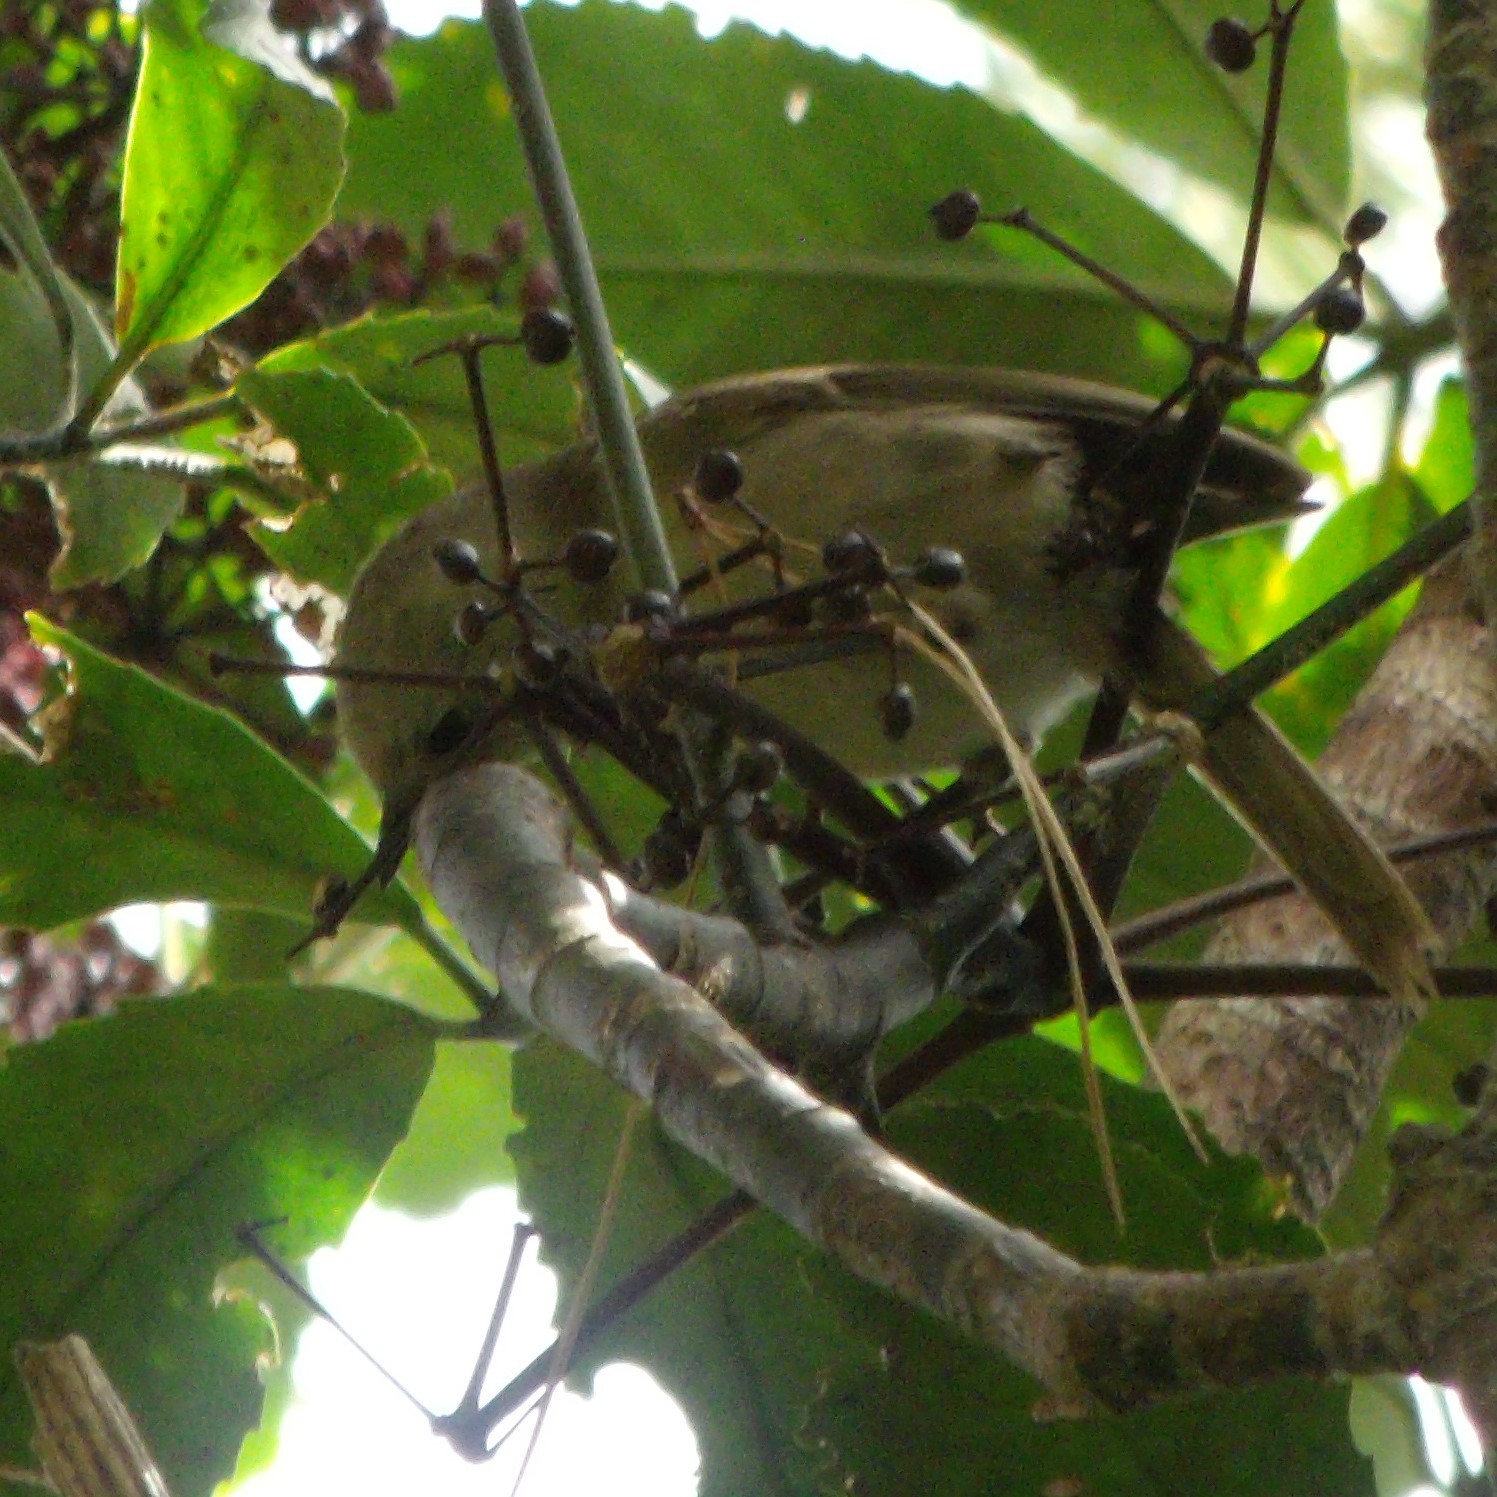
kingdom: Animalia
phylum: Chordata
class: Aves
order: Passeriformes
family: Acanthizidae
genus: Mohoua
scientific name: Mohoua albicilla
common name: Whitehead
